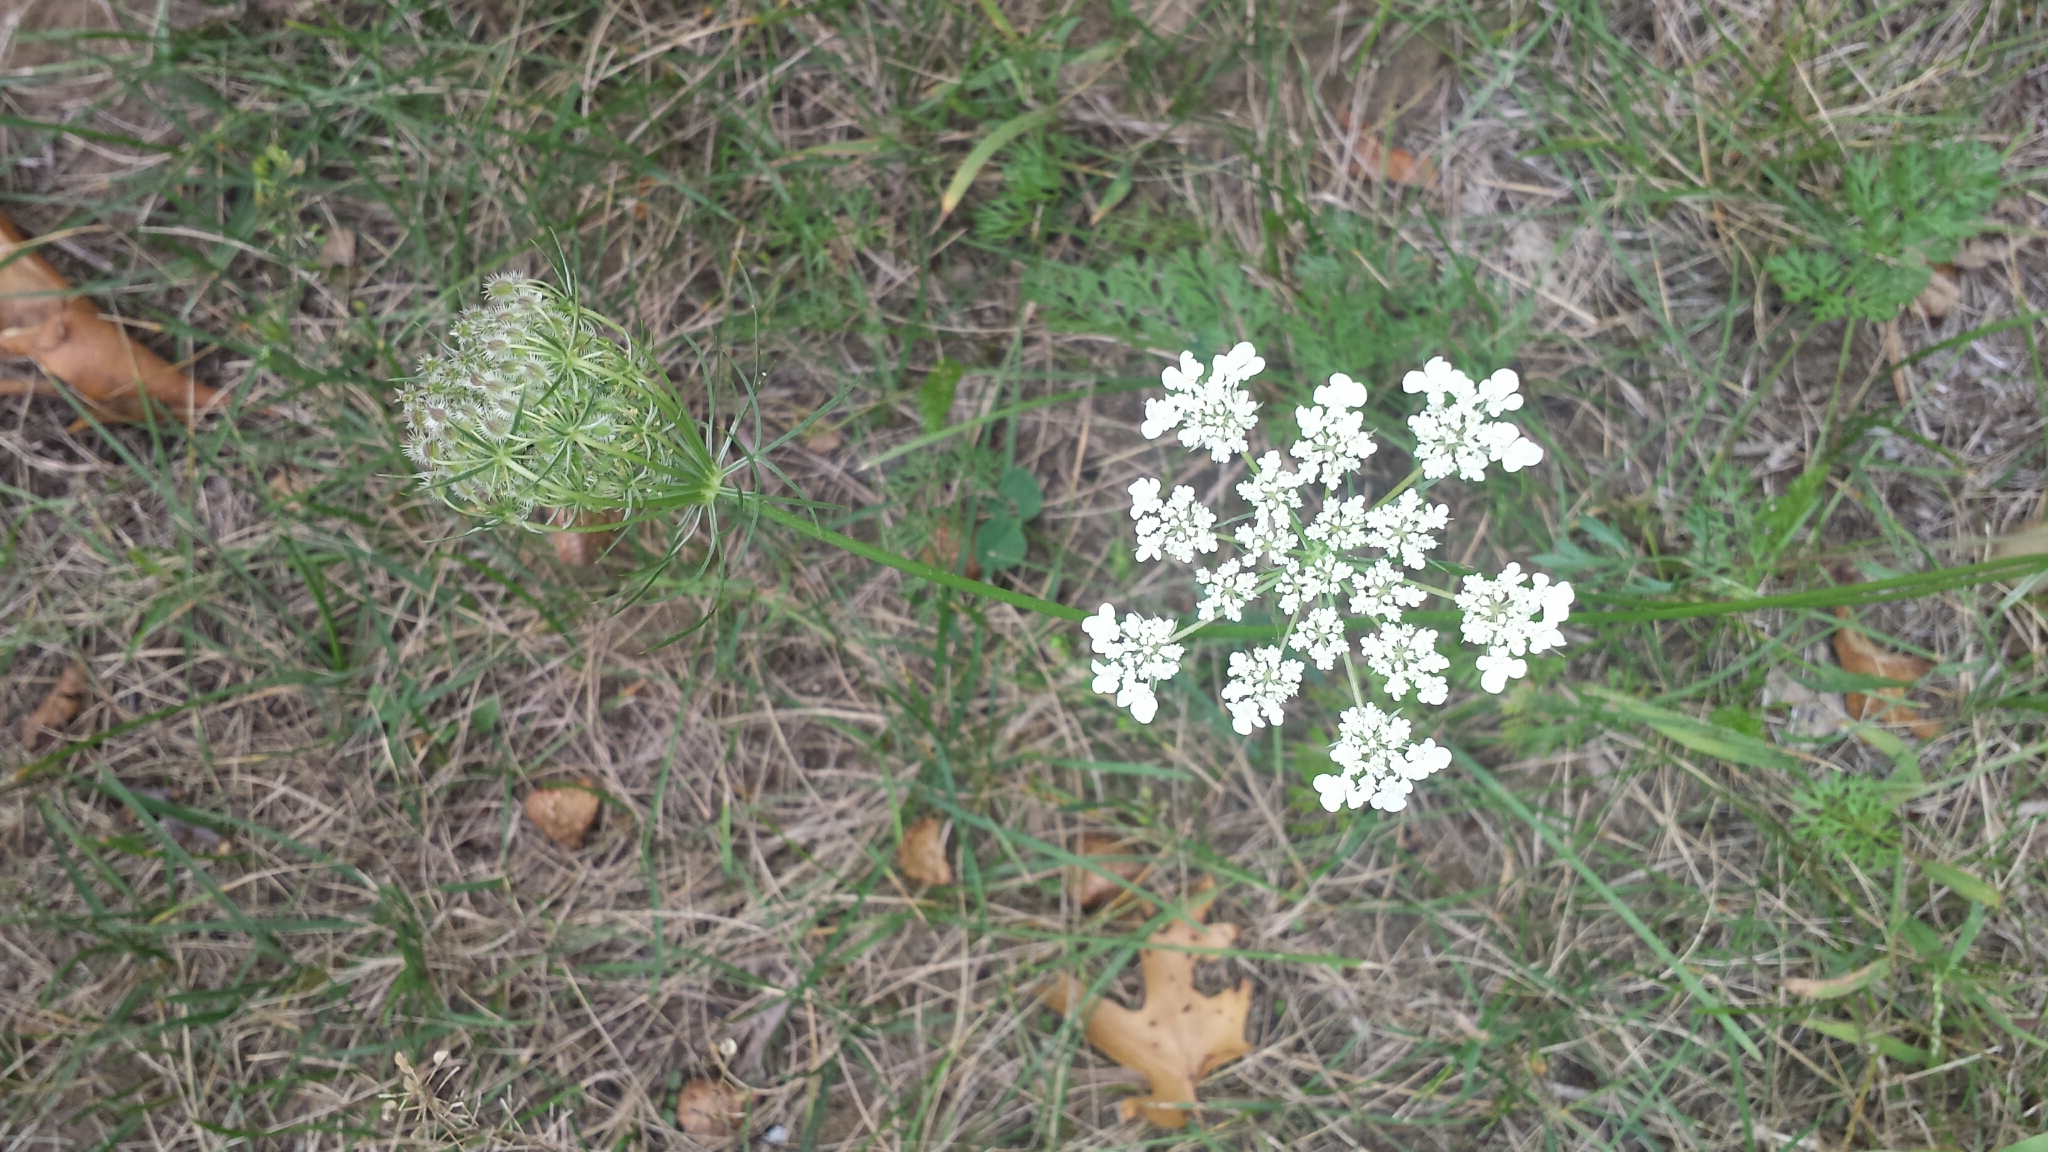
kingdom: Plantae
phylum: Tracheophyta
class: Magnoliopsida
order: Apiales
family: Apiaceae
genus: Daucus
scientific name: Daucus carota
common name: Wild carrot
